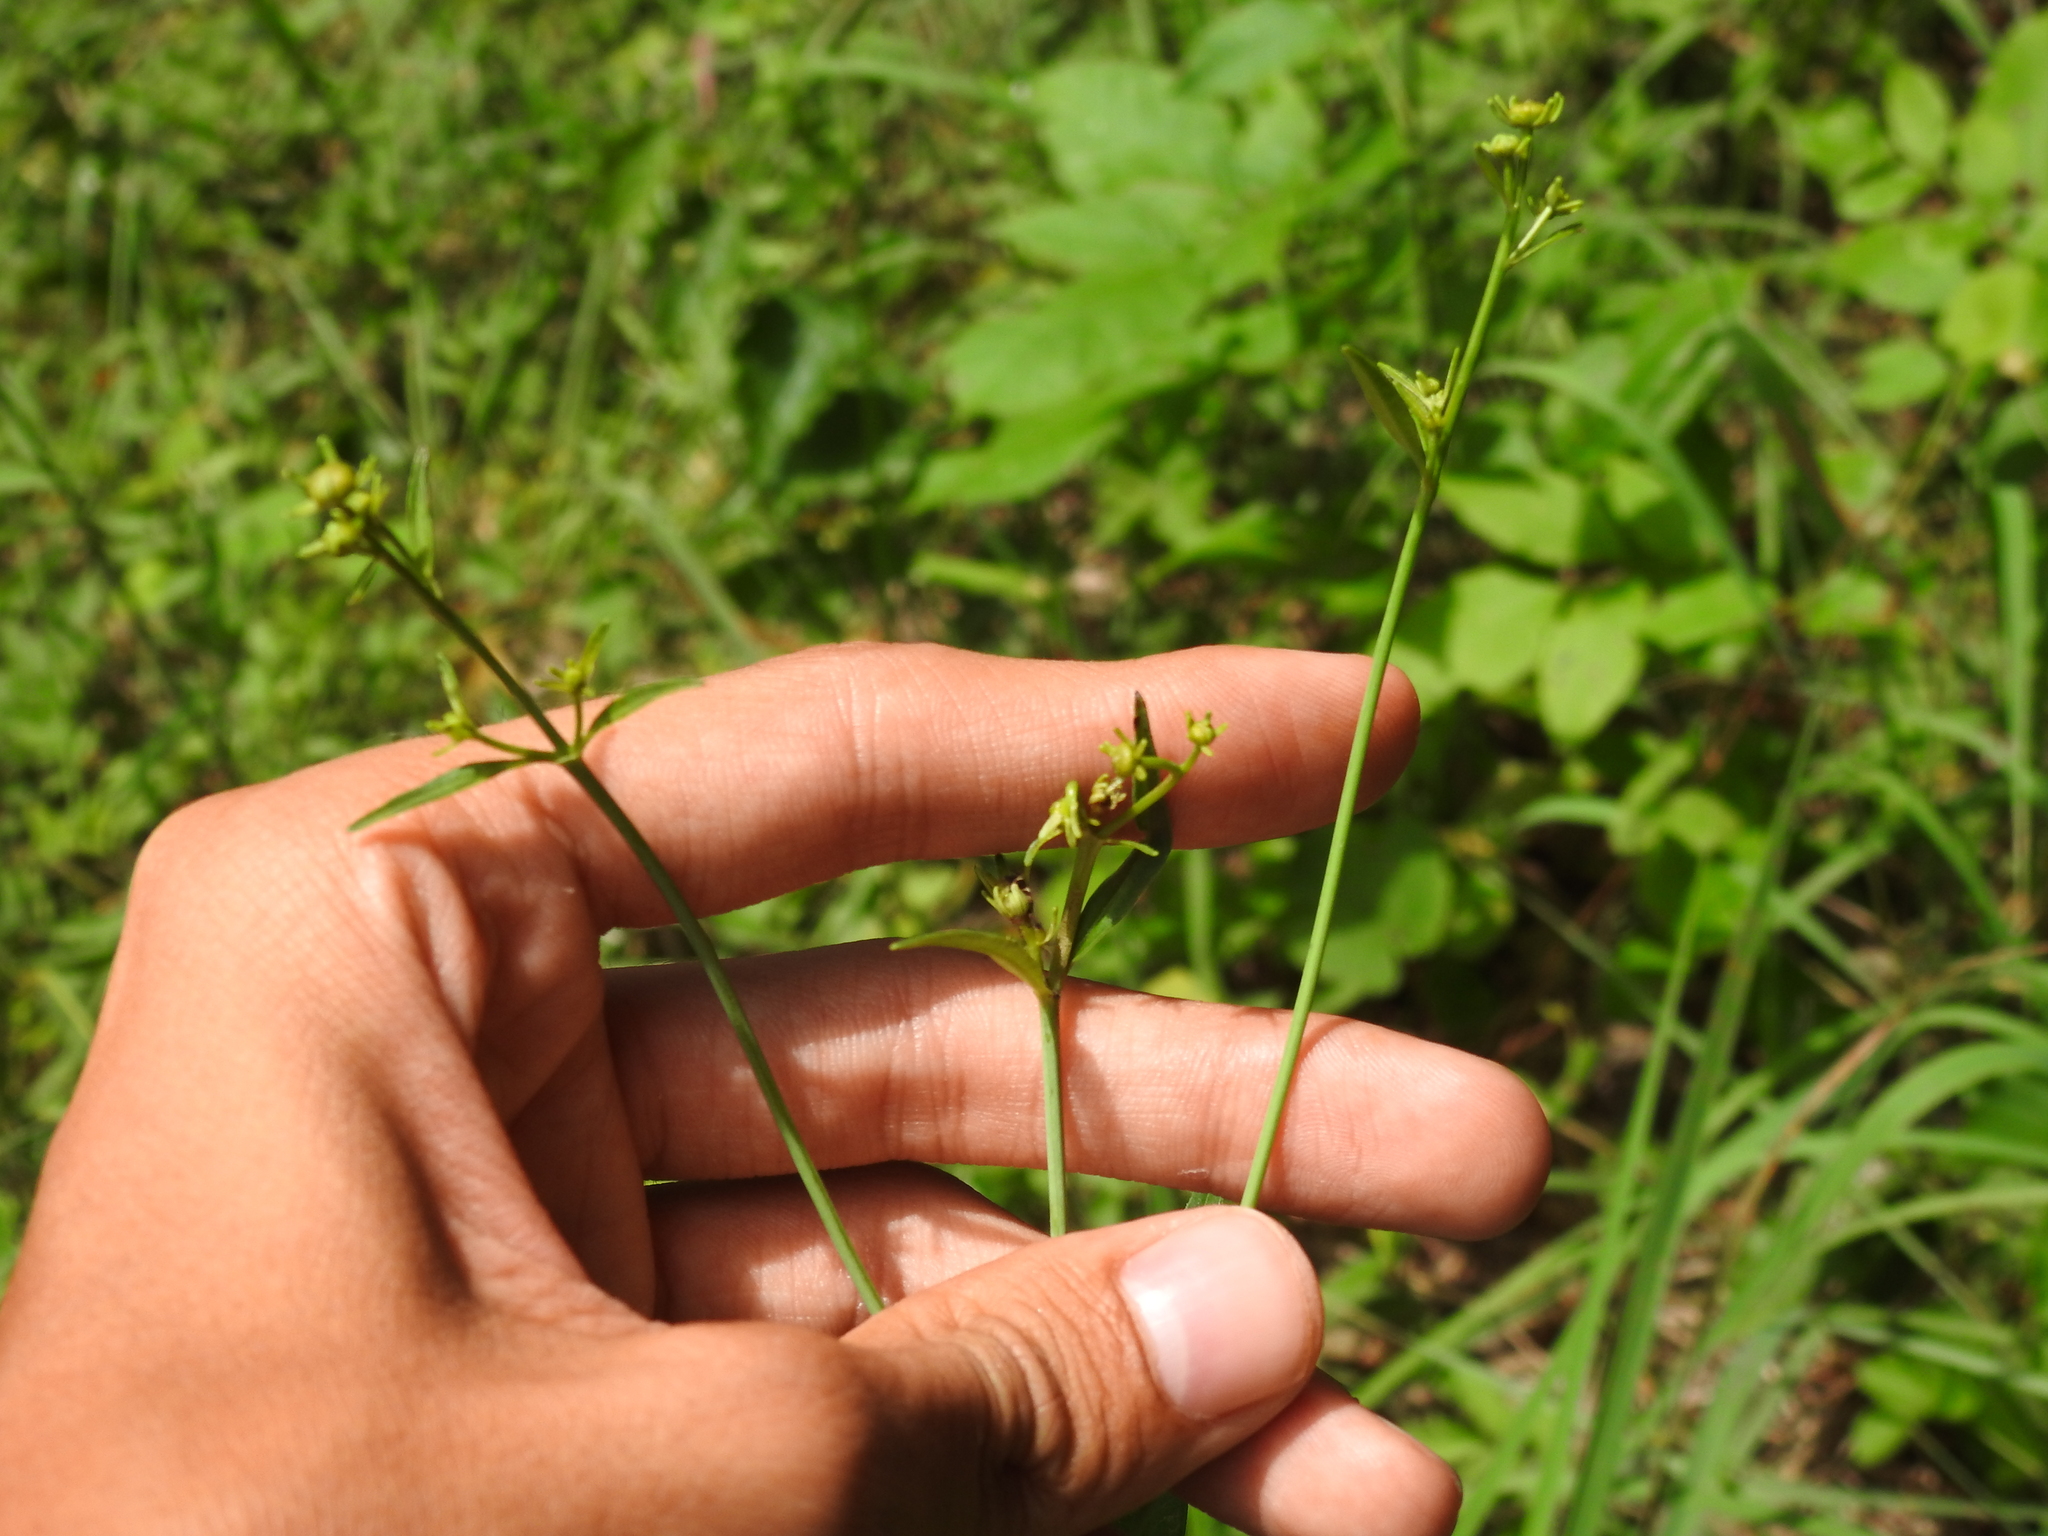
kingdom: Plantae
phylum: Tracheophyta
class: Magnoliopsida
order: Asterales
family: Asteraceae
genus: Coreopsis
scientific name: Coreopsis tripteris
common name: Tall coreopsis
